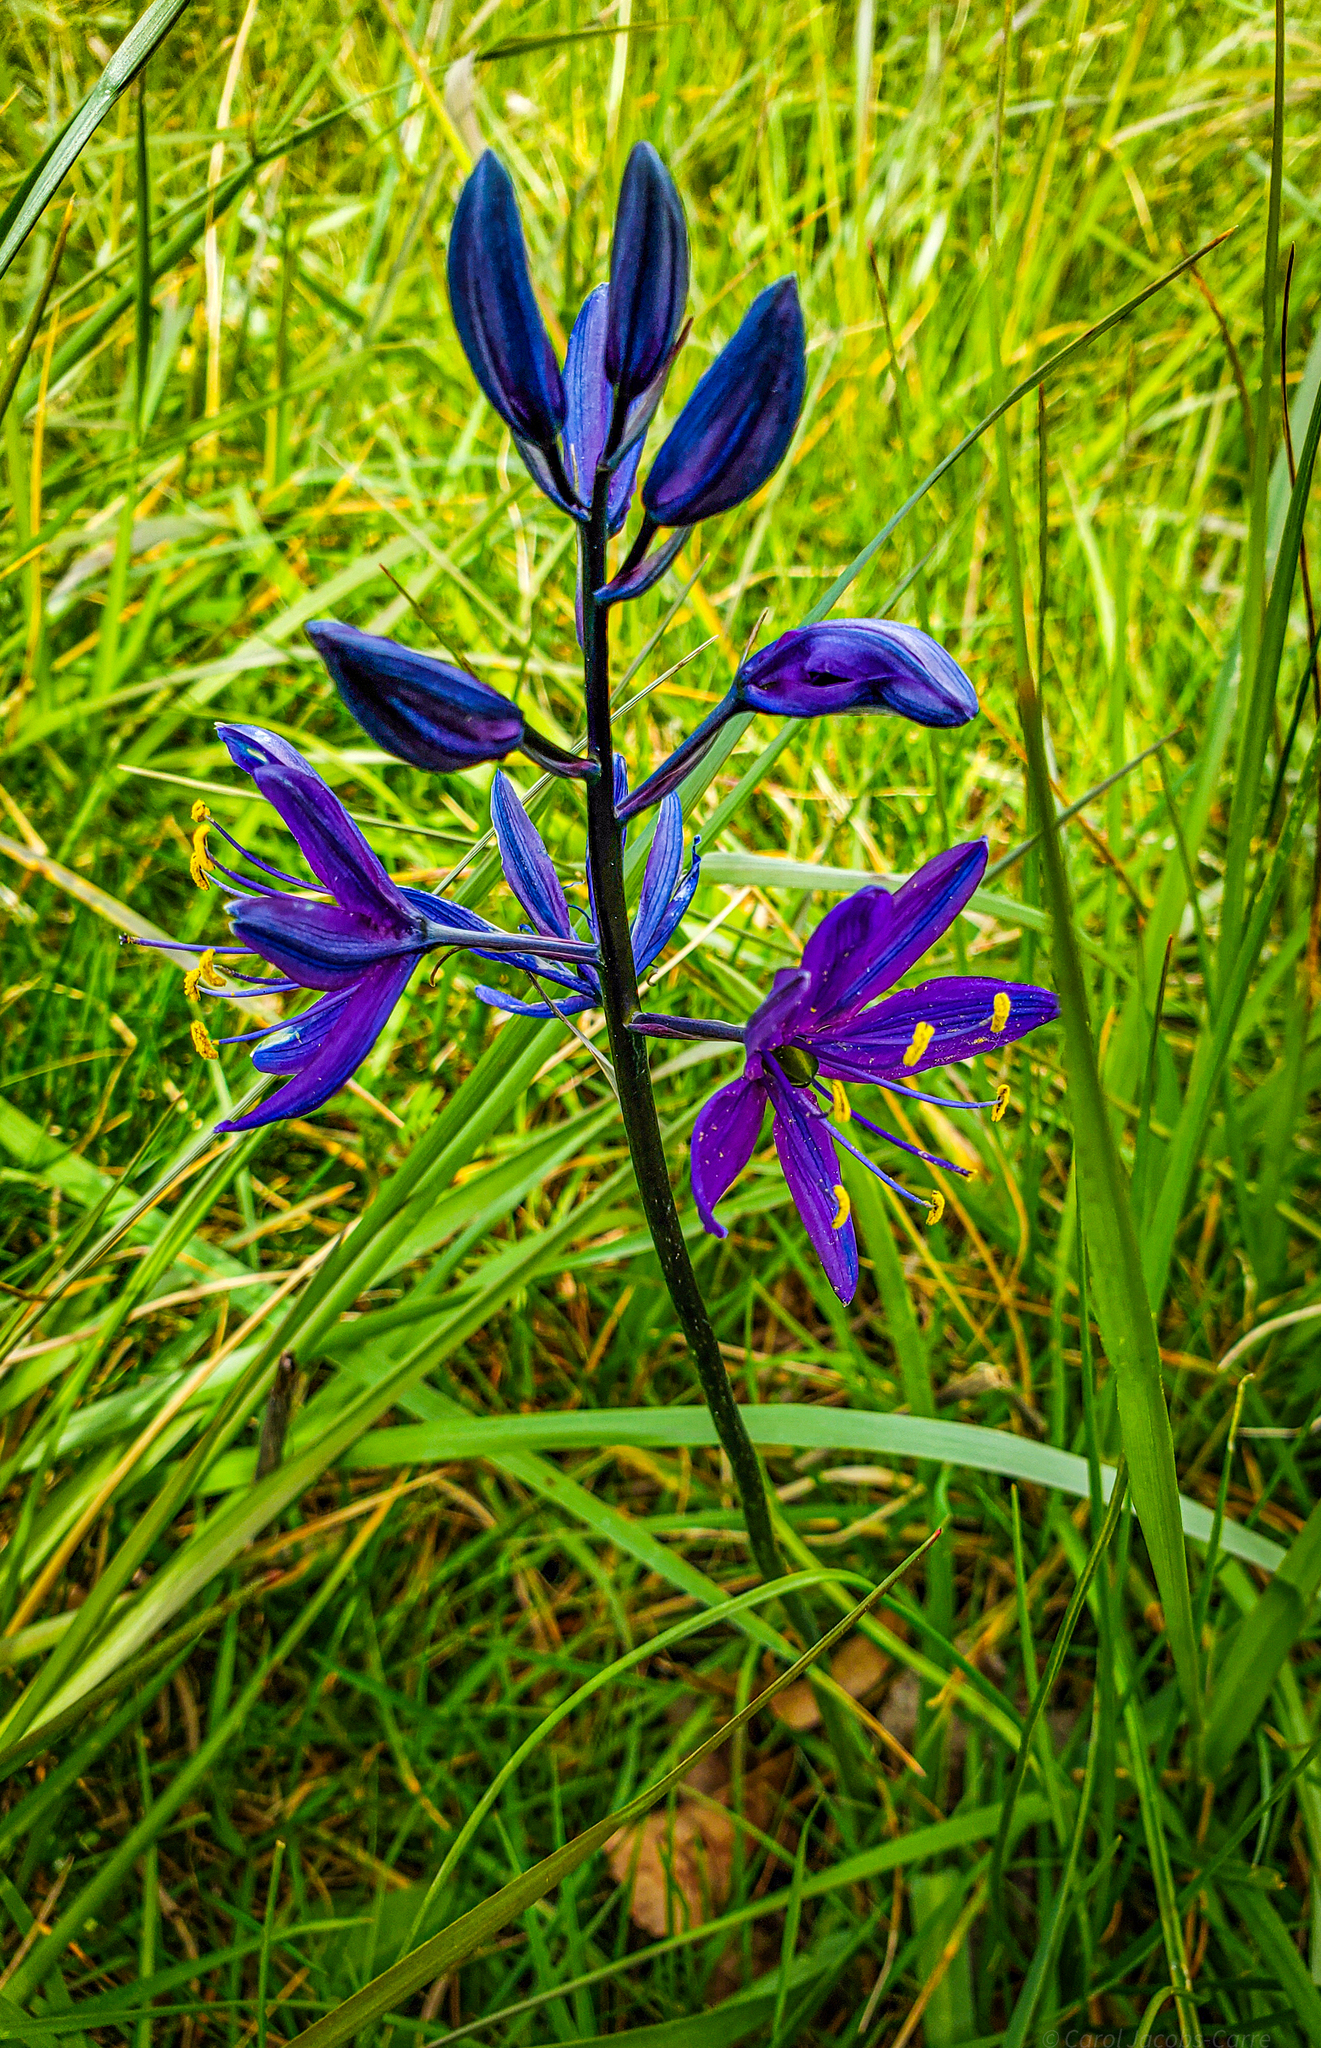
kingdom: Plantae
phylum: Tracheophyta
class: Liliopsida
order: Asparagales
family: Asparagaceae
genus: Camassia
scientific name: Camassia quamash
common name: Common camas
